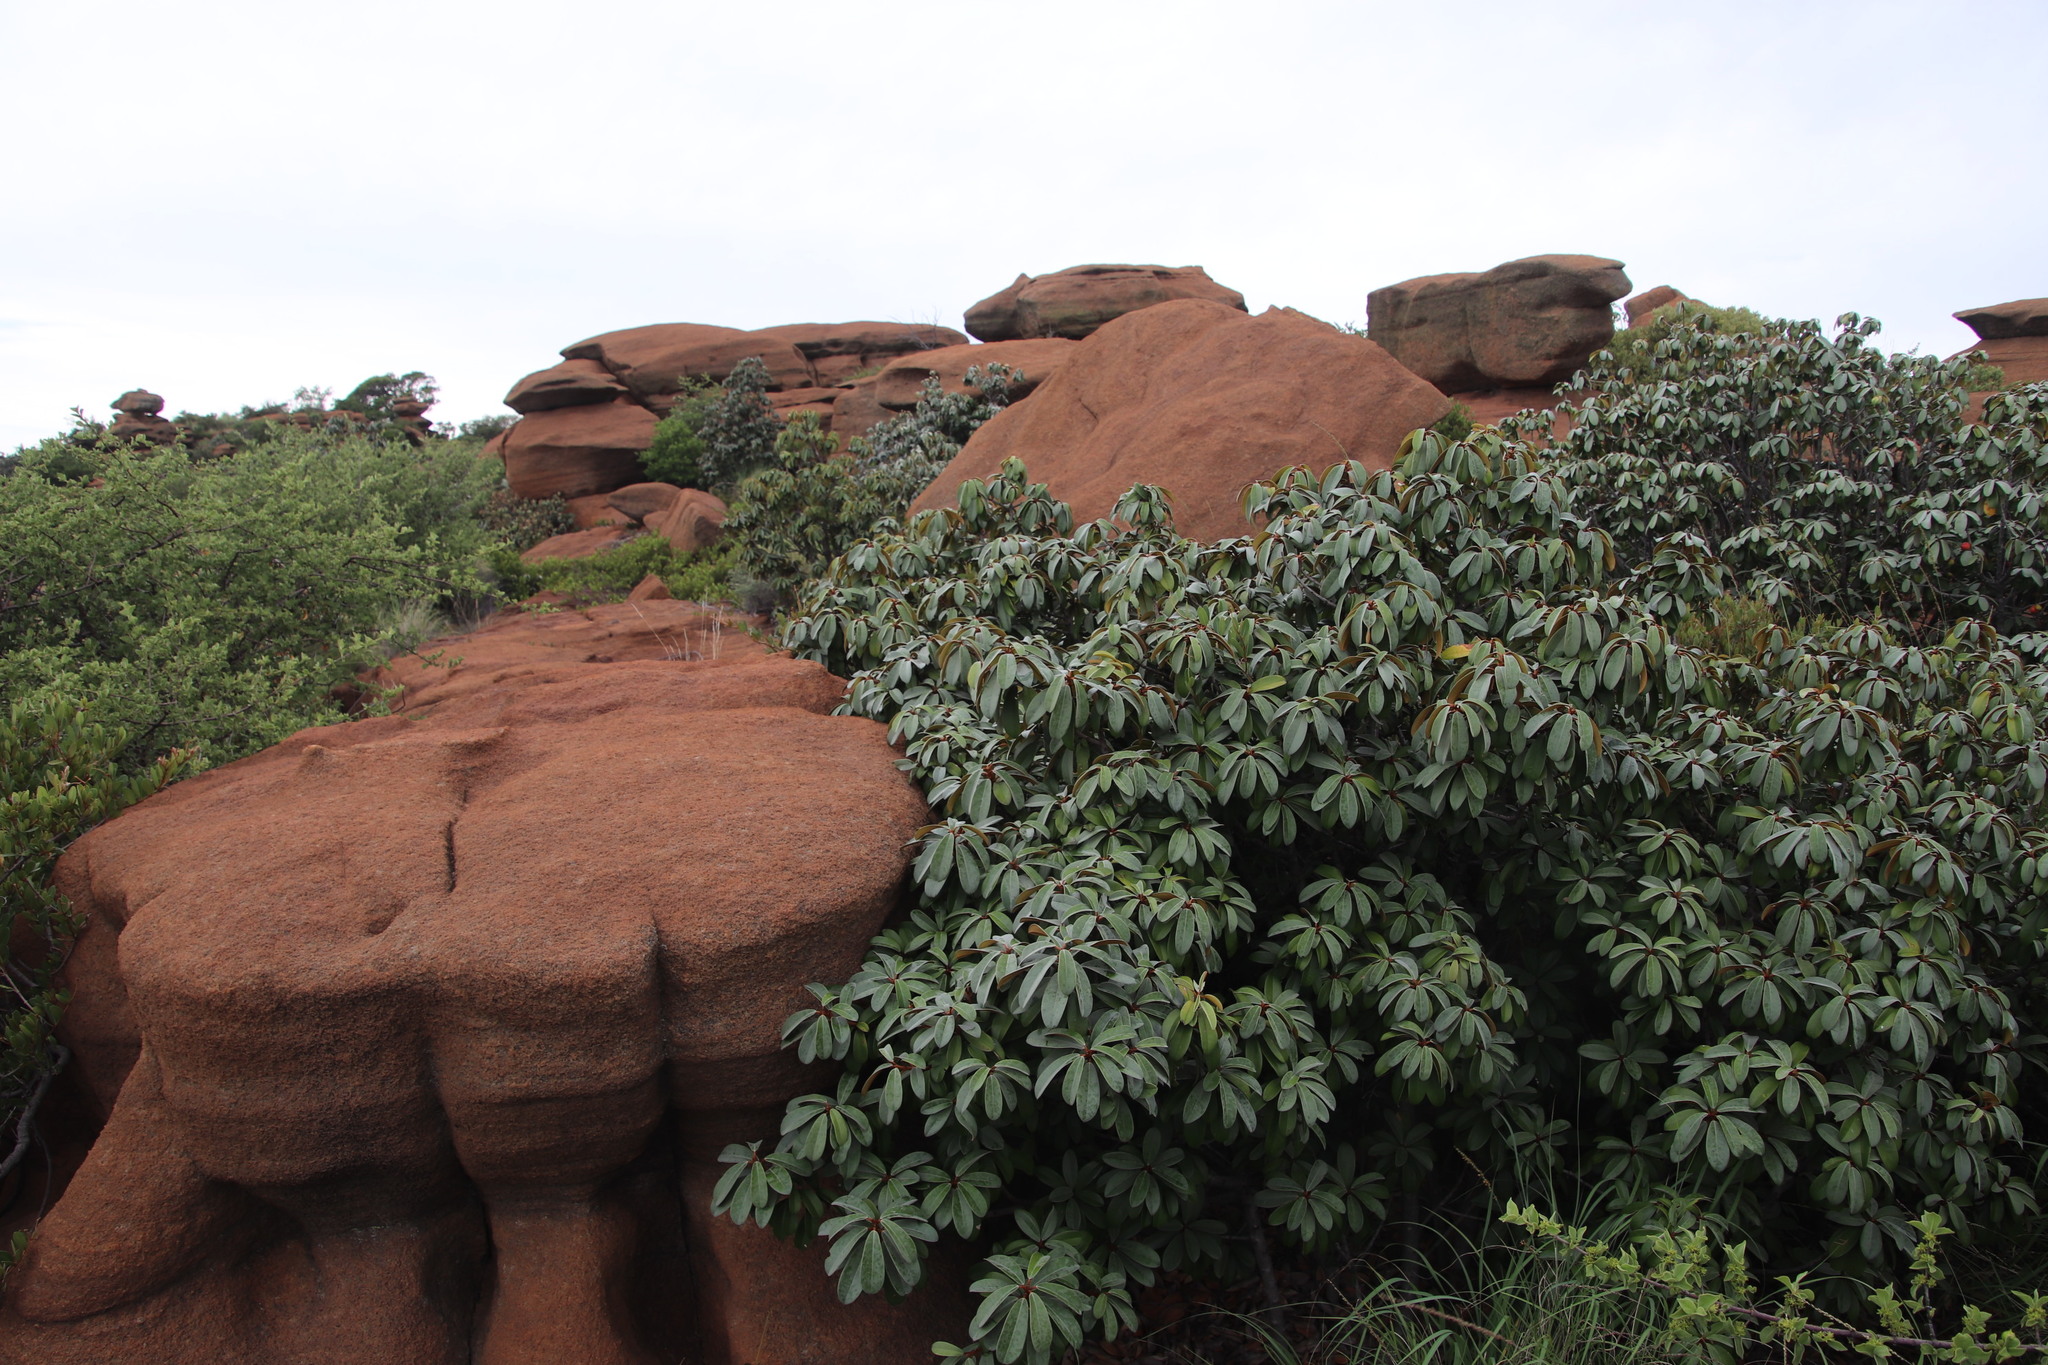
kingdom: Plantae
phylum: Tracheophyta
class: Magnoliopsida
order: Ericales
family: Sapotaceae
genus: Englerophytum
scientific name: Englerophytum magalismontanum
